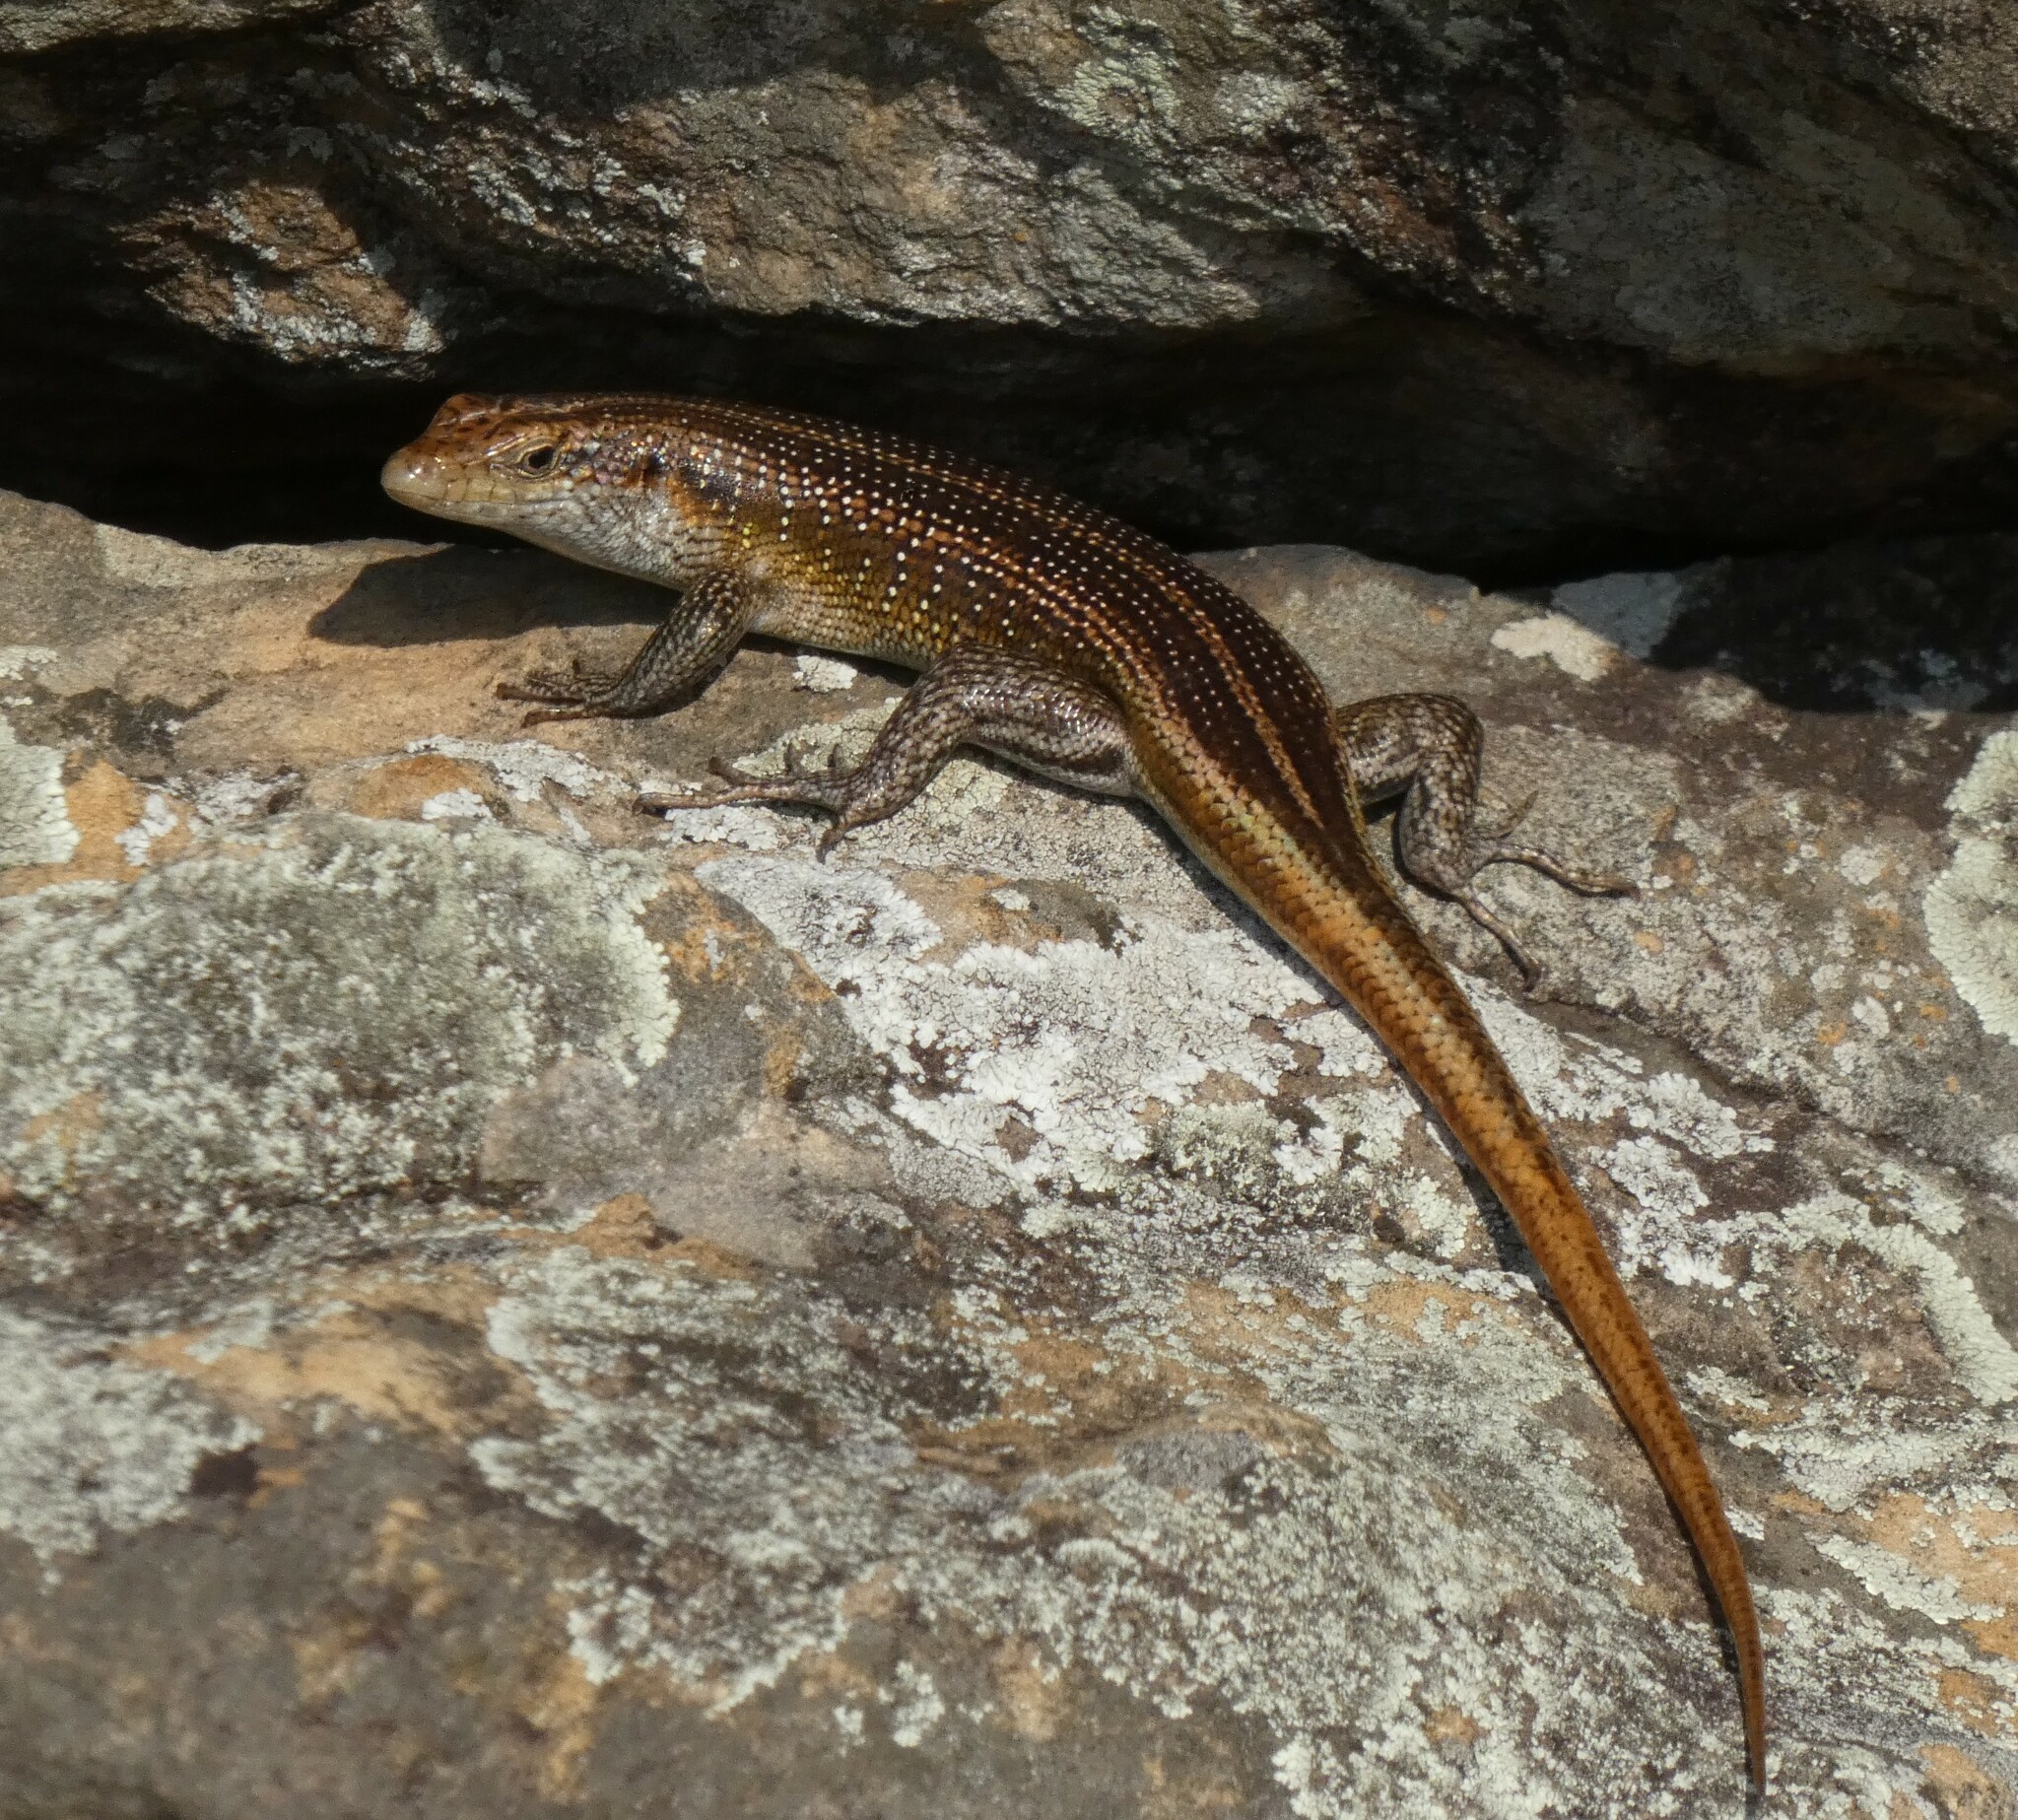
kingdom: Animalia
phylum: Chordata
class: Squamata
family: Scincidae
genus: Trachylepis
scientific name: Trachylepis margaritifera
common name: Rainbow skink
